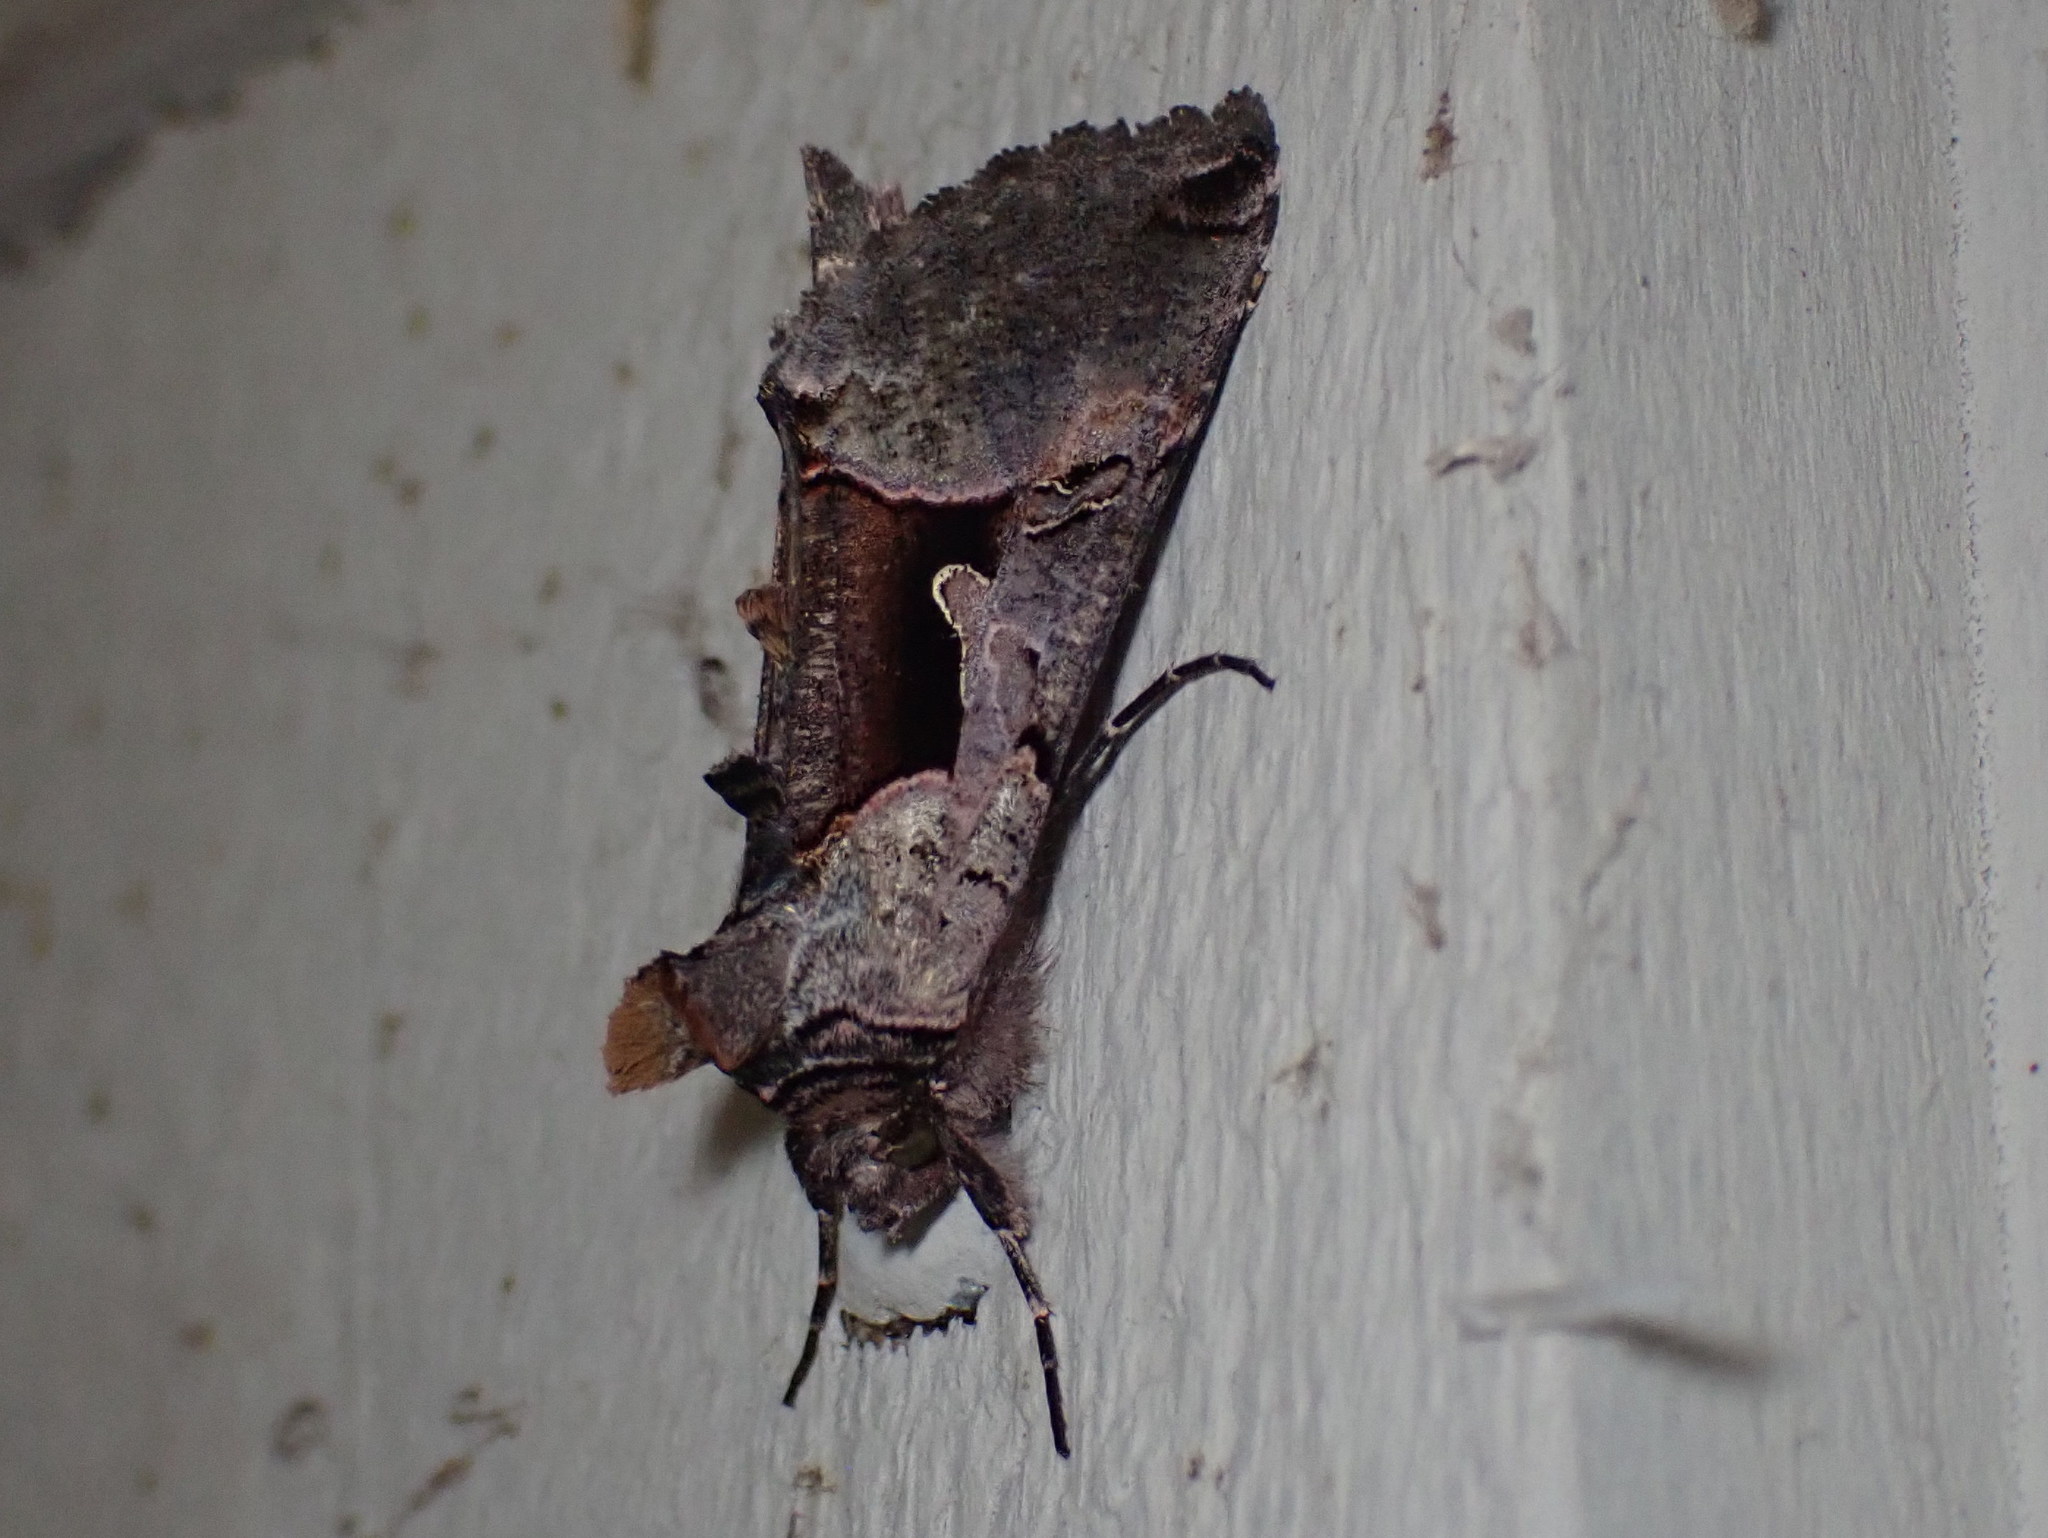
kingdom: Animalia
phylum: Arthropoda
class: Insecta
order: Lepidoptera
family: Noctuidae
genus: Autographa
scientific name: Autographa ampla
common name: Large looper moth
